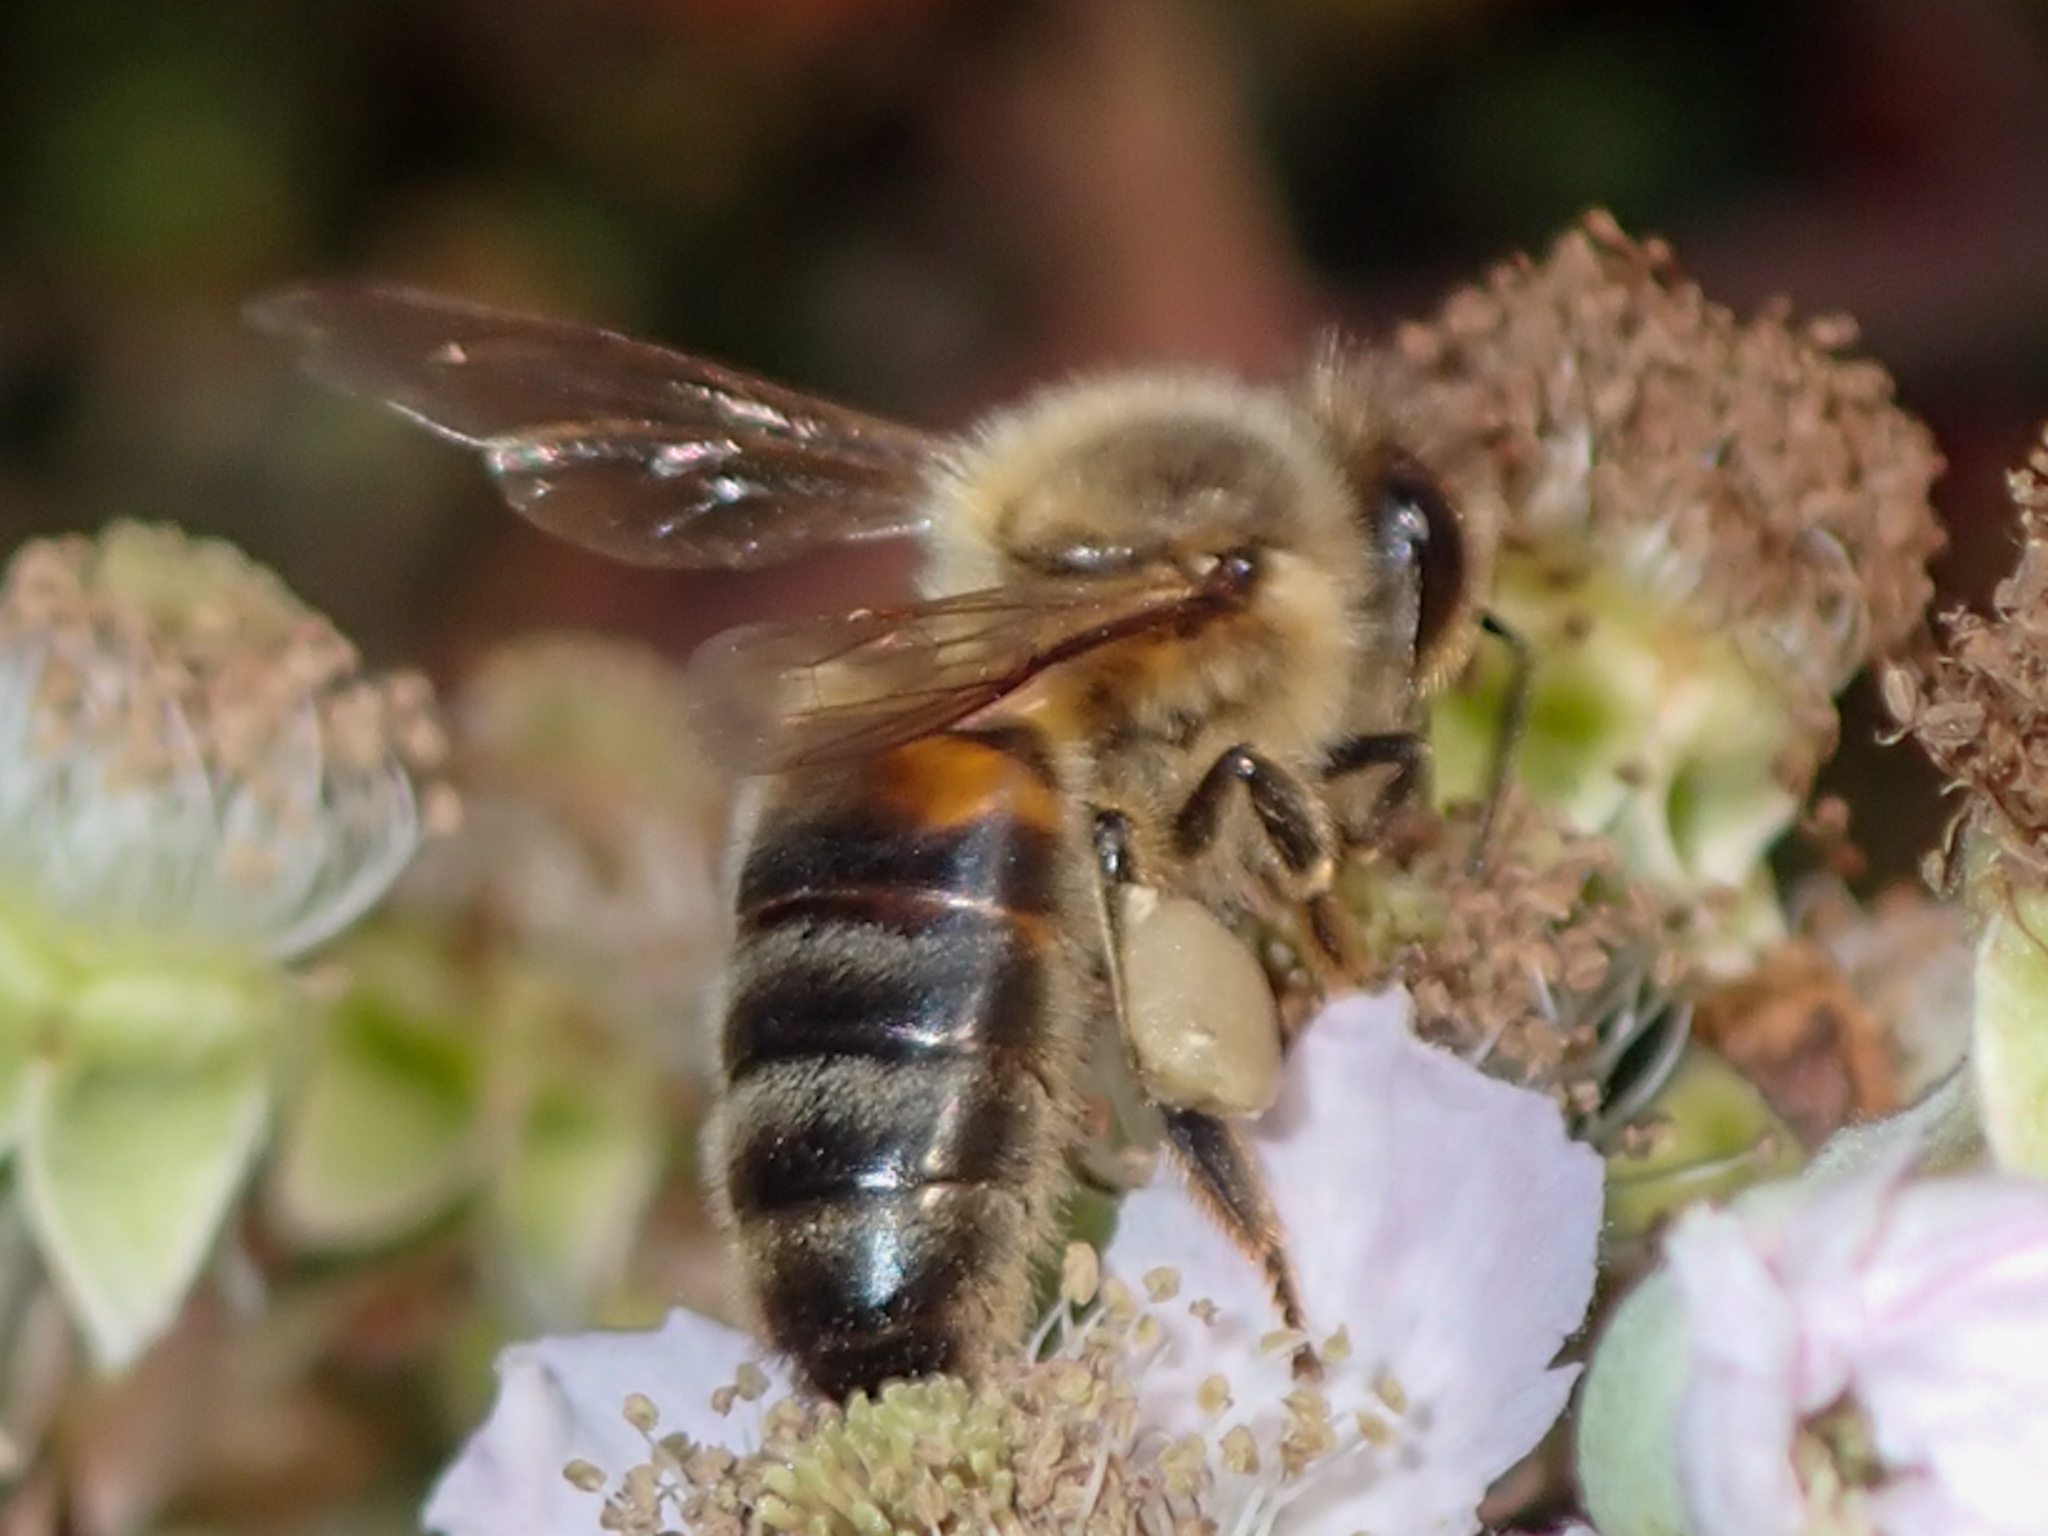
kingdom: Animalia
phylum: Arthropoda
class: Insecta
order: Hymenoptera
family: Apidae
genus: Apis
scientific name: Apis mellifera
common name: Honey bee
